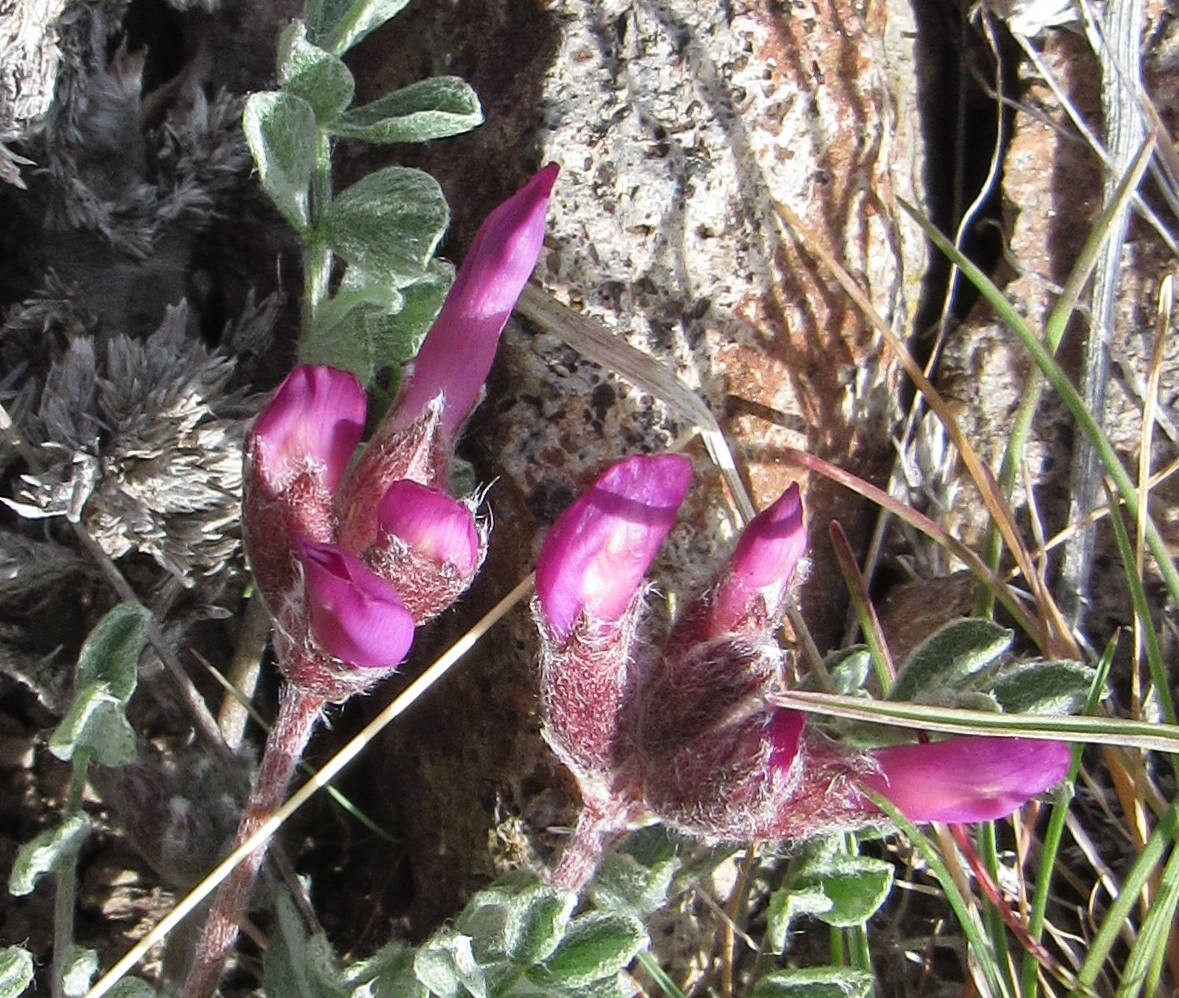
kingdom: Plantae
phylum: Tracheophyta
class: Magnoliopsida
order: Fabales
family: Fabaceae
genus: Astragalus
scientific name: Astragalus purshii
